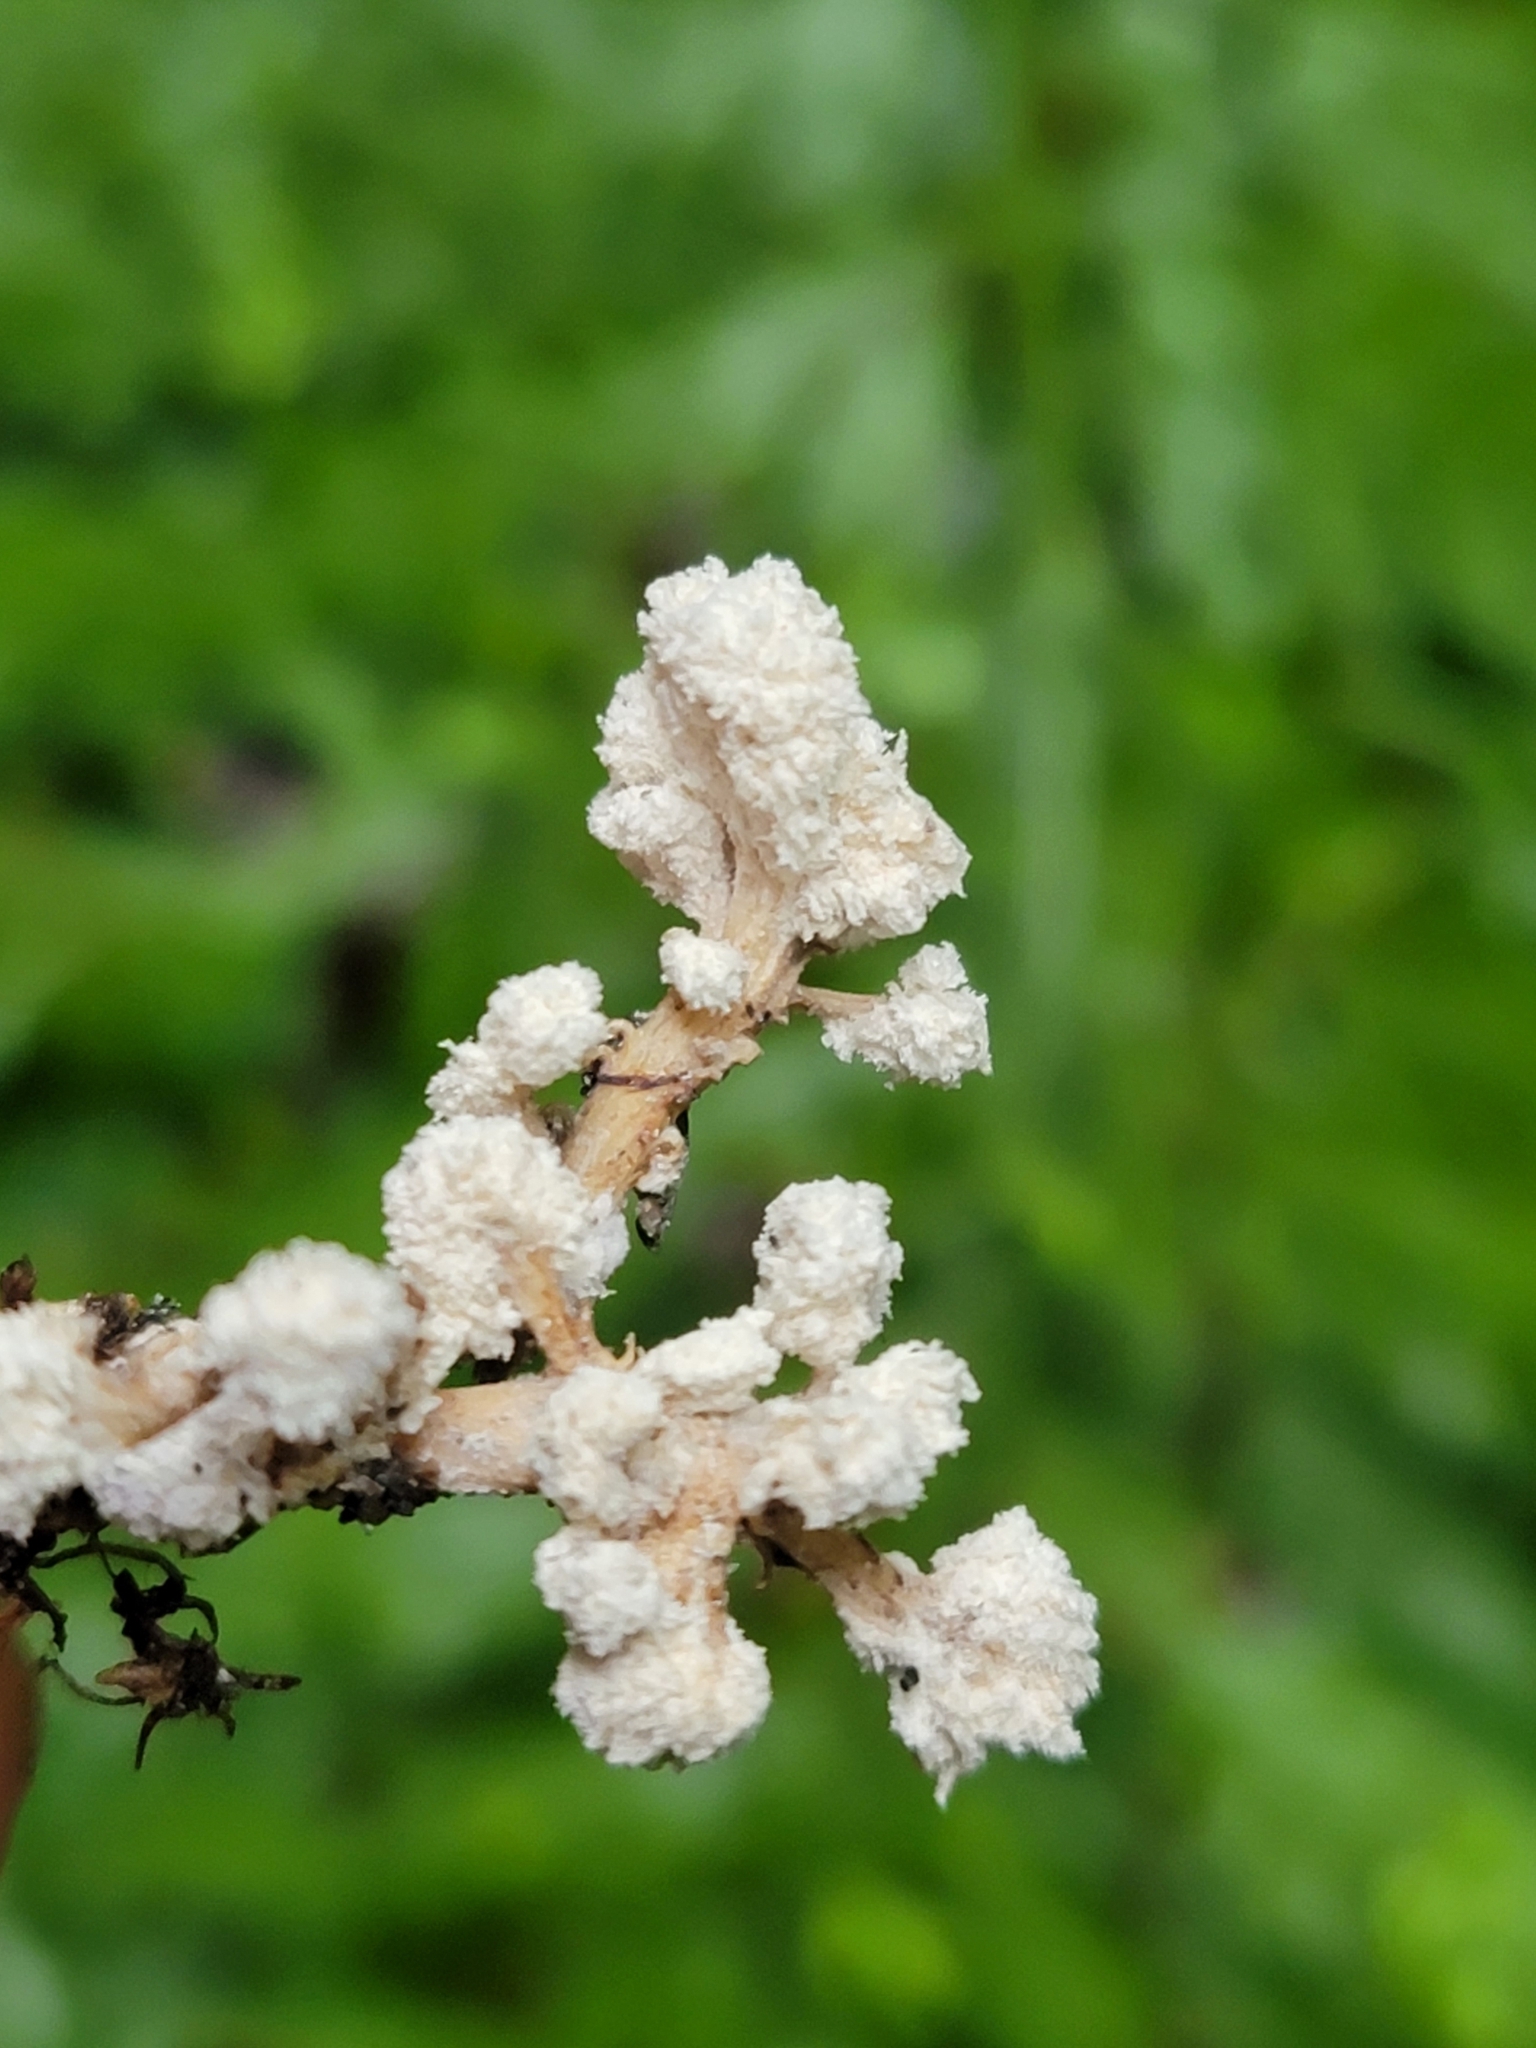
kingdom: Fungi
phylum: Ascomycota
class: Sordariomycetes
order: Hypocreales
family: Cordycipitaceae
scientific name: Cordycipitaceae
